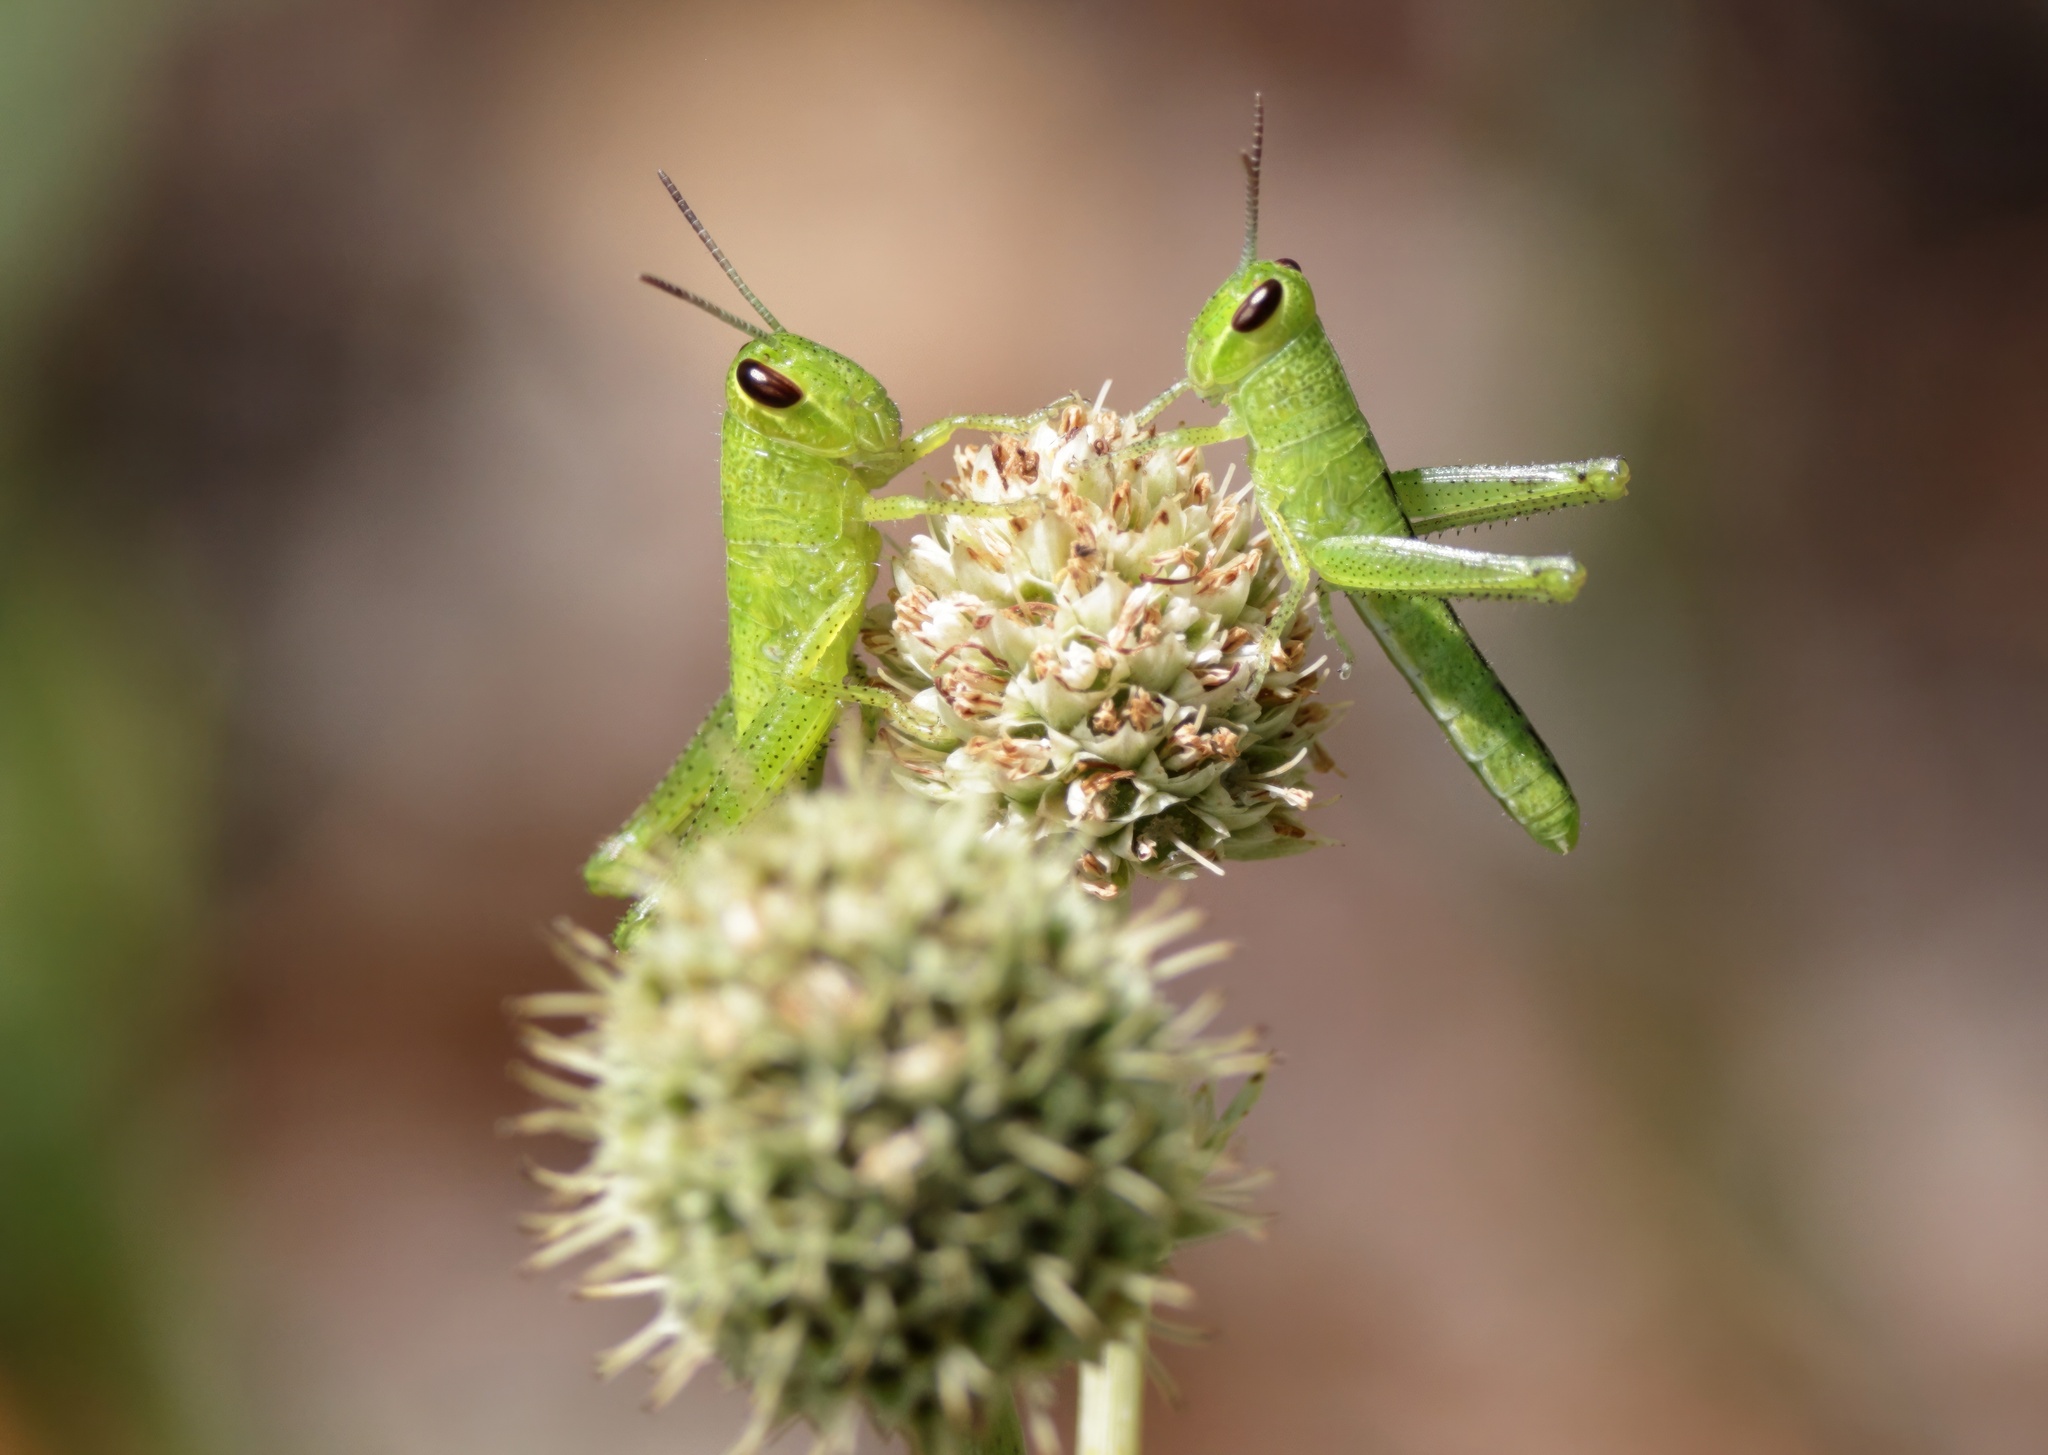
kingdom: Animalia
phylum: Arthropoda
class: Insecta
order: Orthoptera
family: Acrididae
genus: Schistocerca
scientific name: Schistocerca americana
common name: American bird locust
